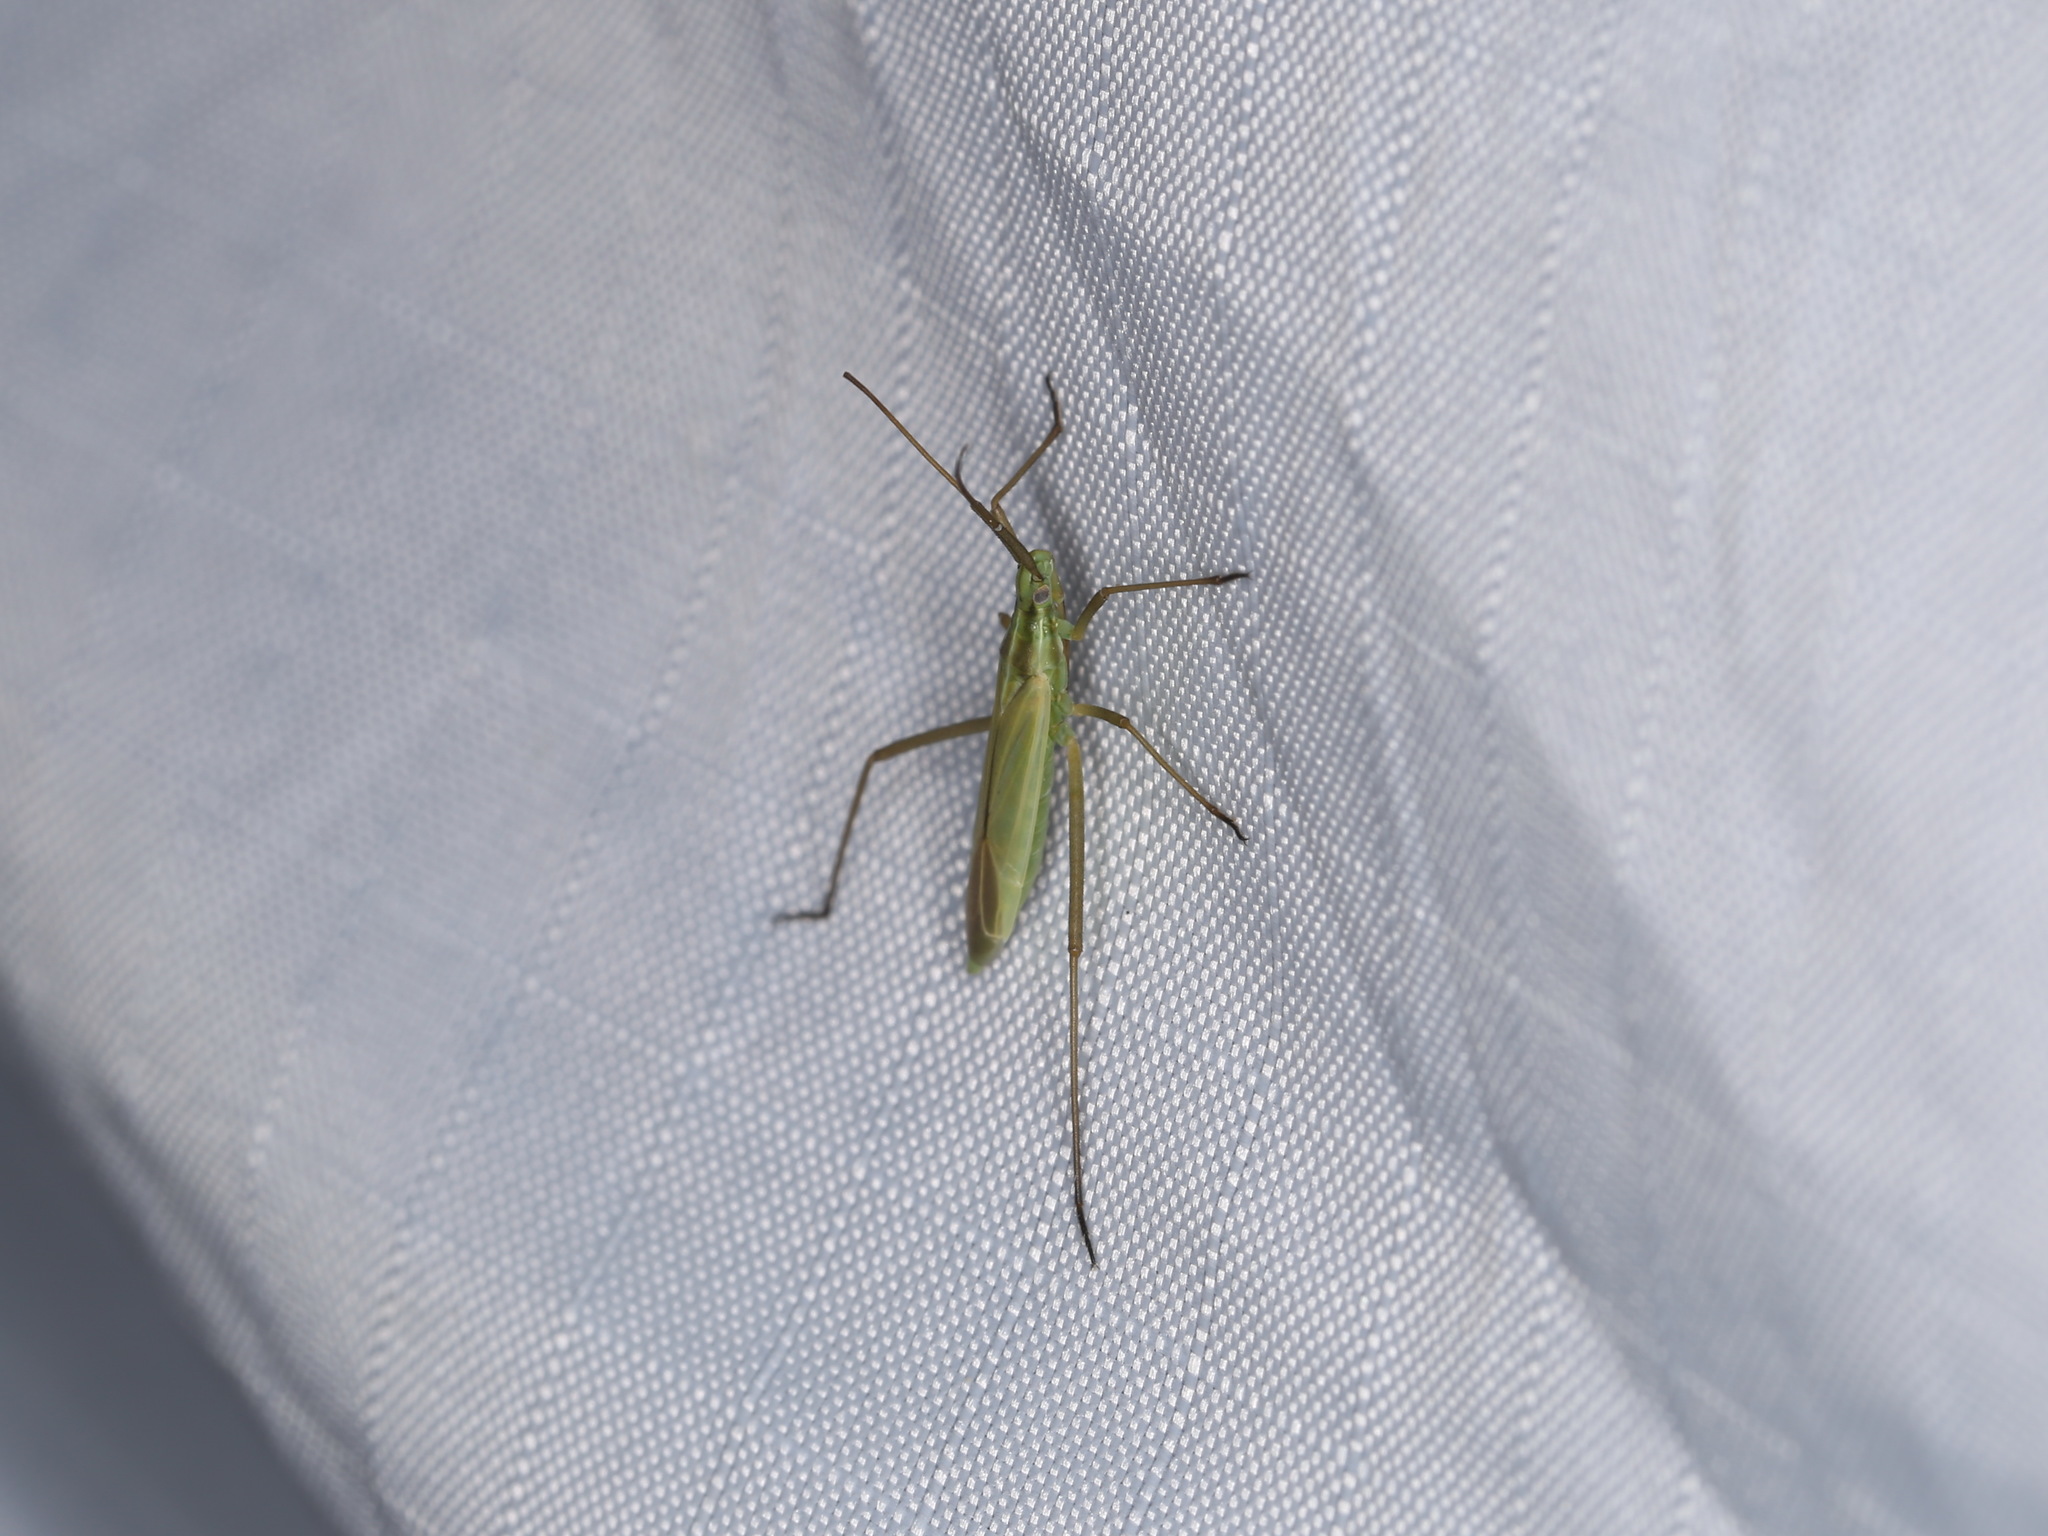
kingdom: Animalia
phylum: Arthropoda
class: Insecta
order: Hemiptera
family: Miridae
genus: Megaloceroea
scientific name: Megaloceroea recticornis
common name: Plant bug
